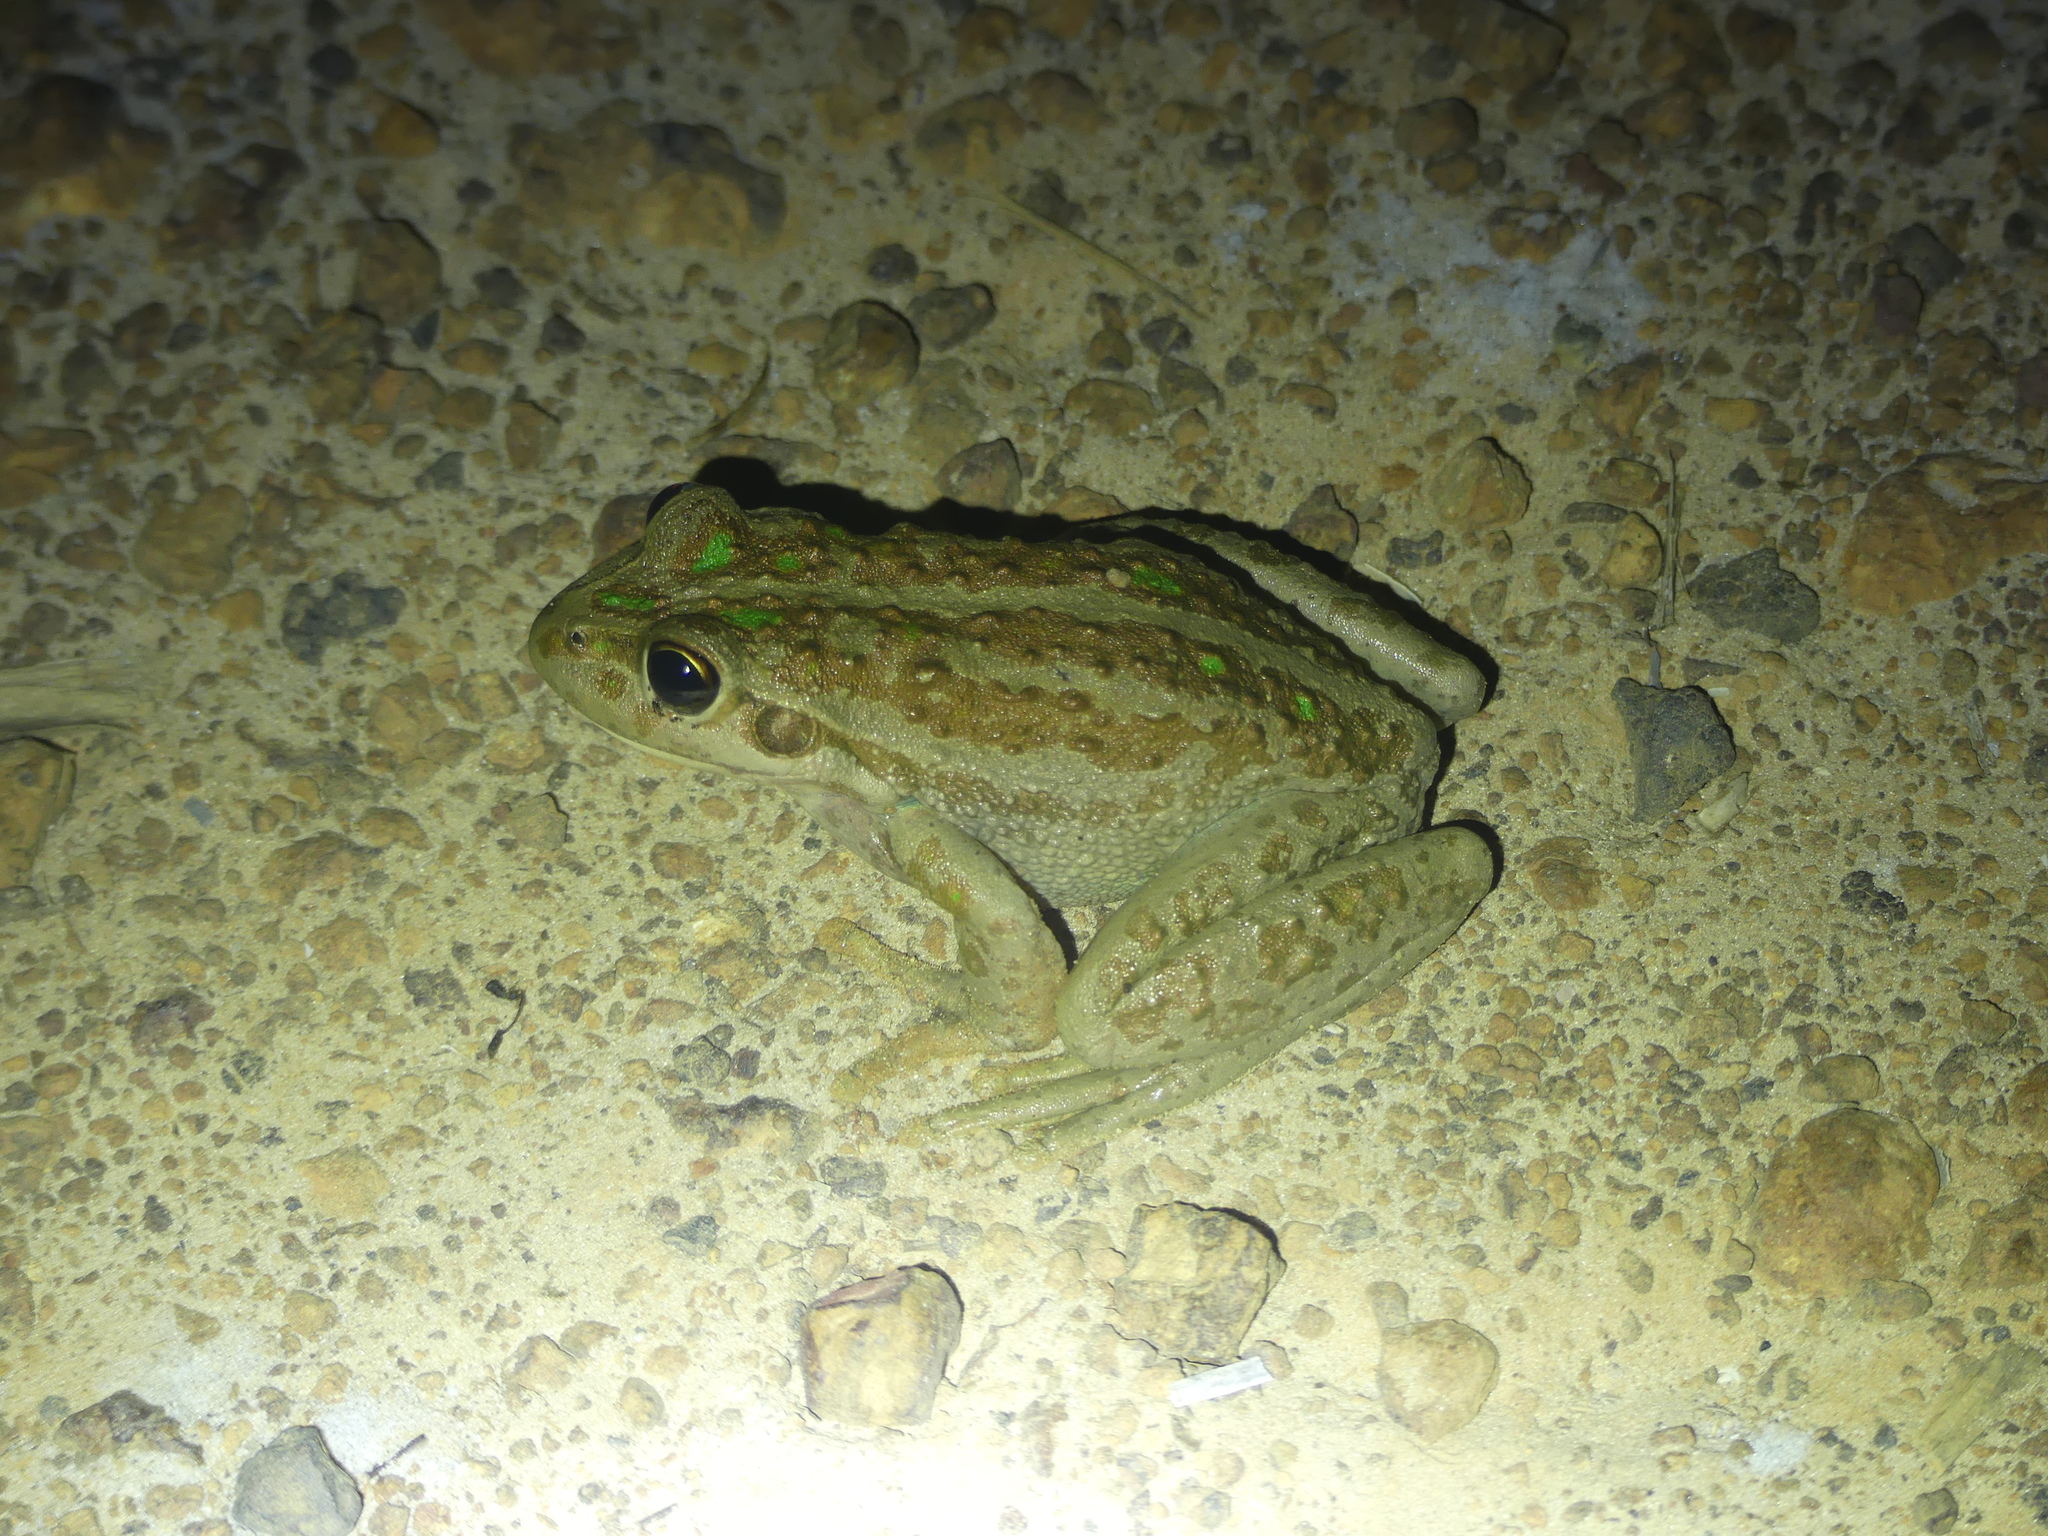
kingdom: Animalia
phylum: Chordata
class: Amphibia
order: Anura
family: Pelodryadidae
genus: Ranoidea
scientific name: Ranoidea moorei
